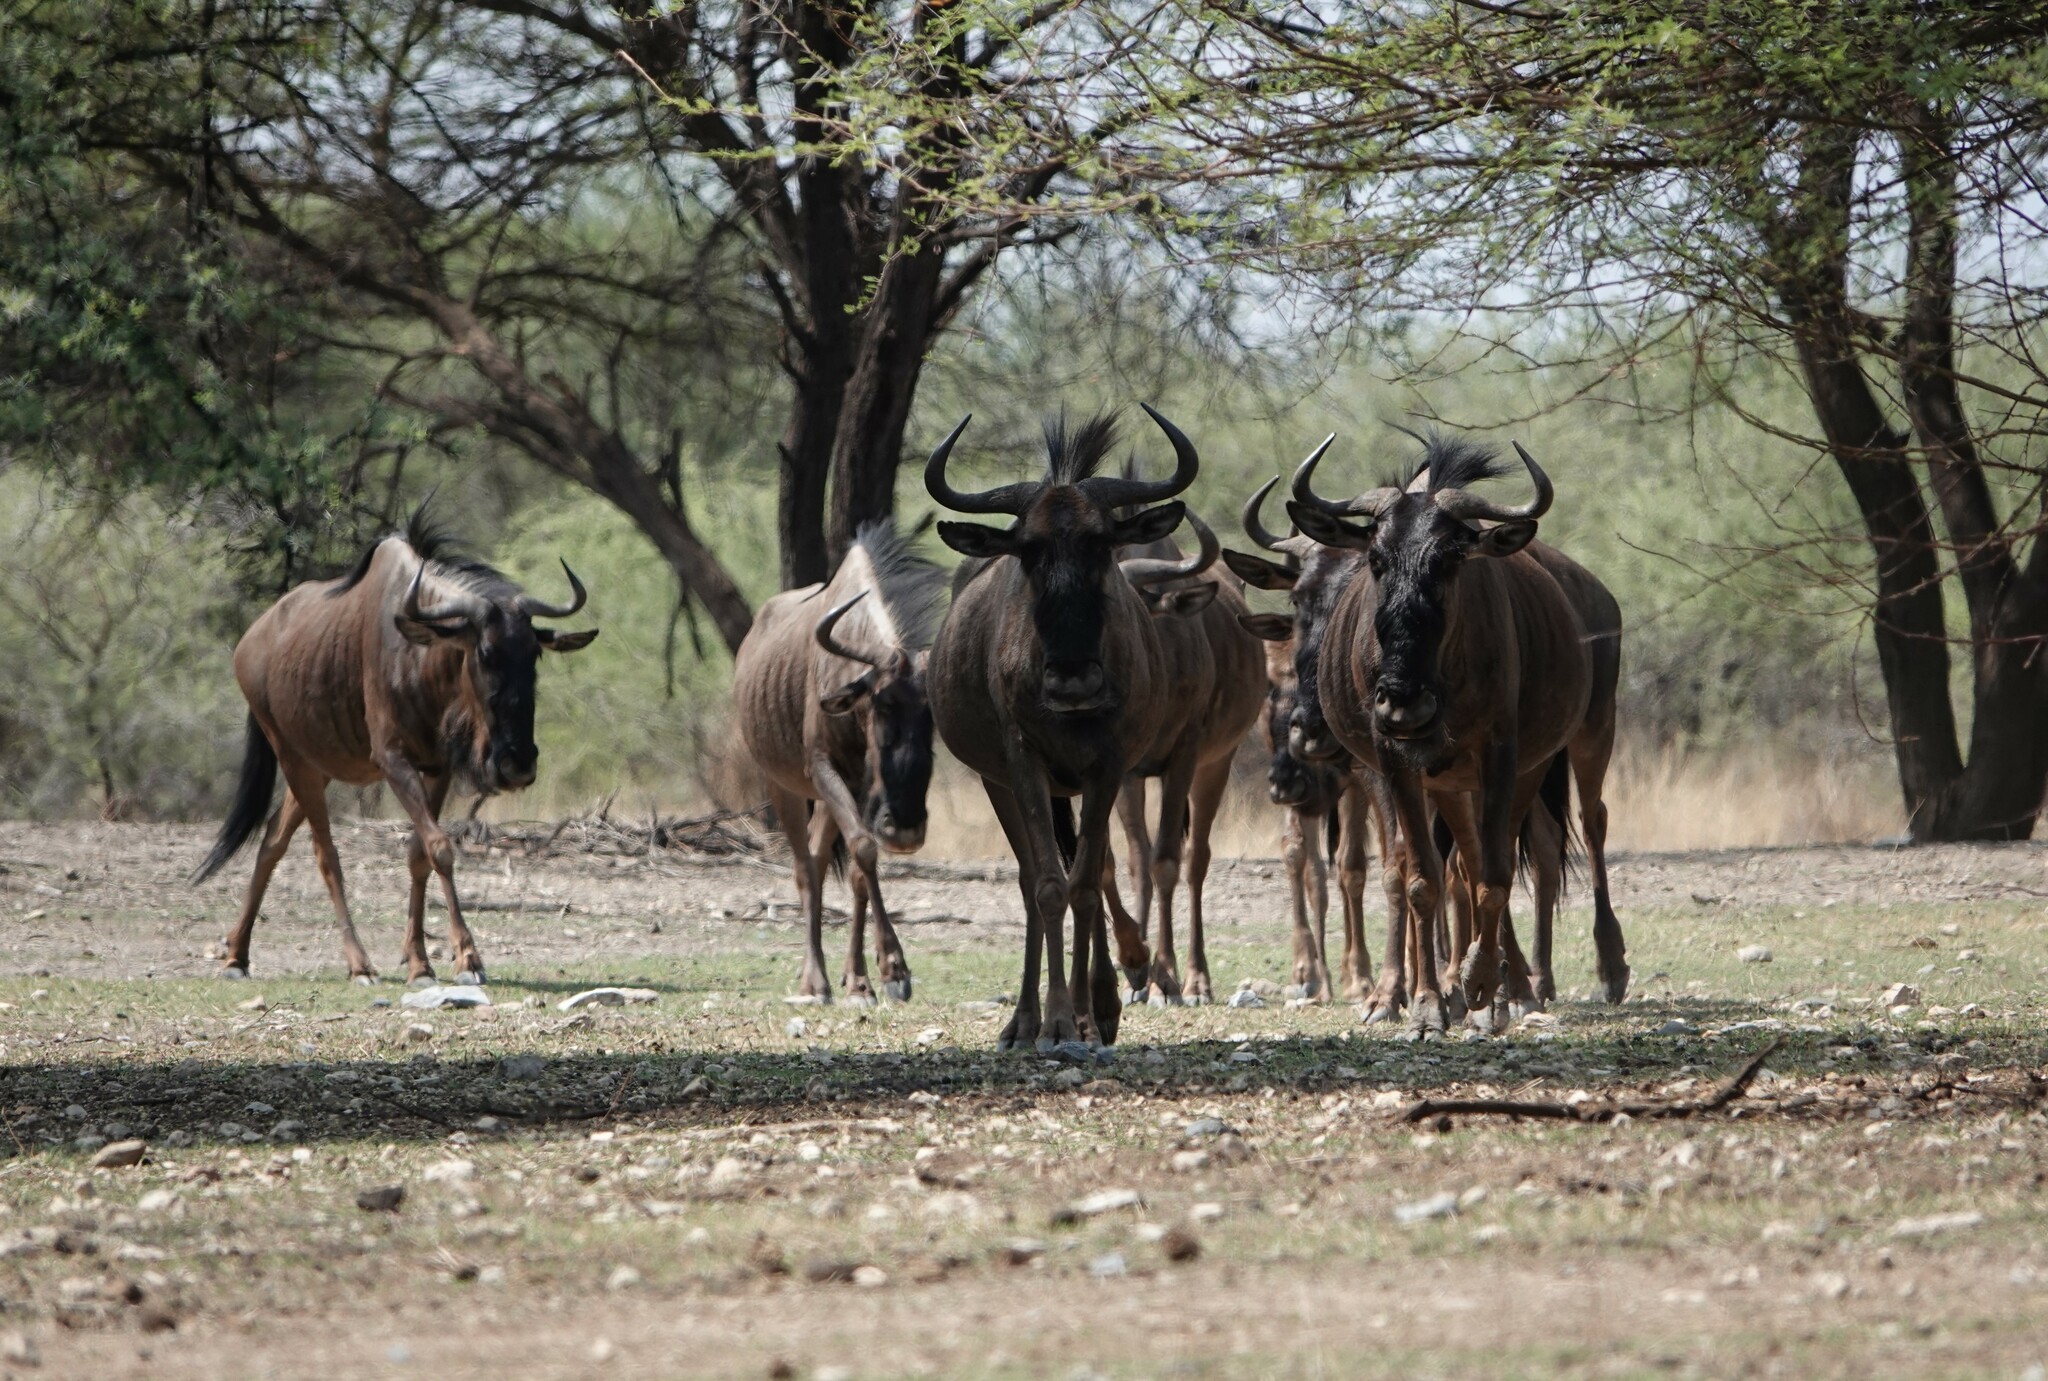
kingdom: Animalia
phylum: Chordata
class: Mammalia
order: Artiodactyla
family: Bovidae
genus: Connochaetes
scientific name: Connochaetes taurinus
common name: Blue wildebeest
